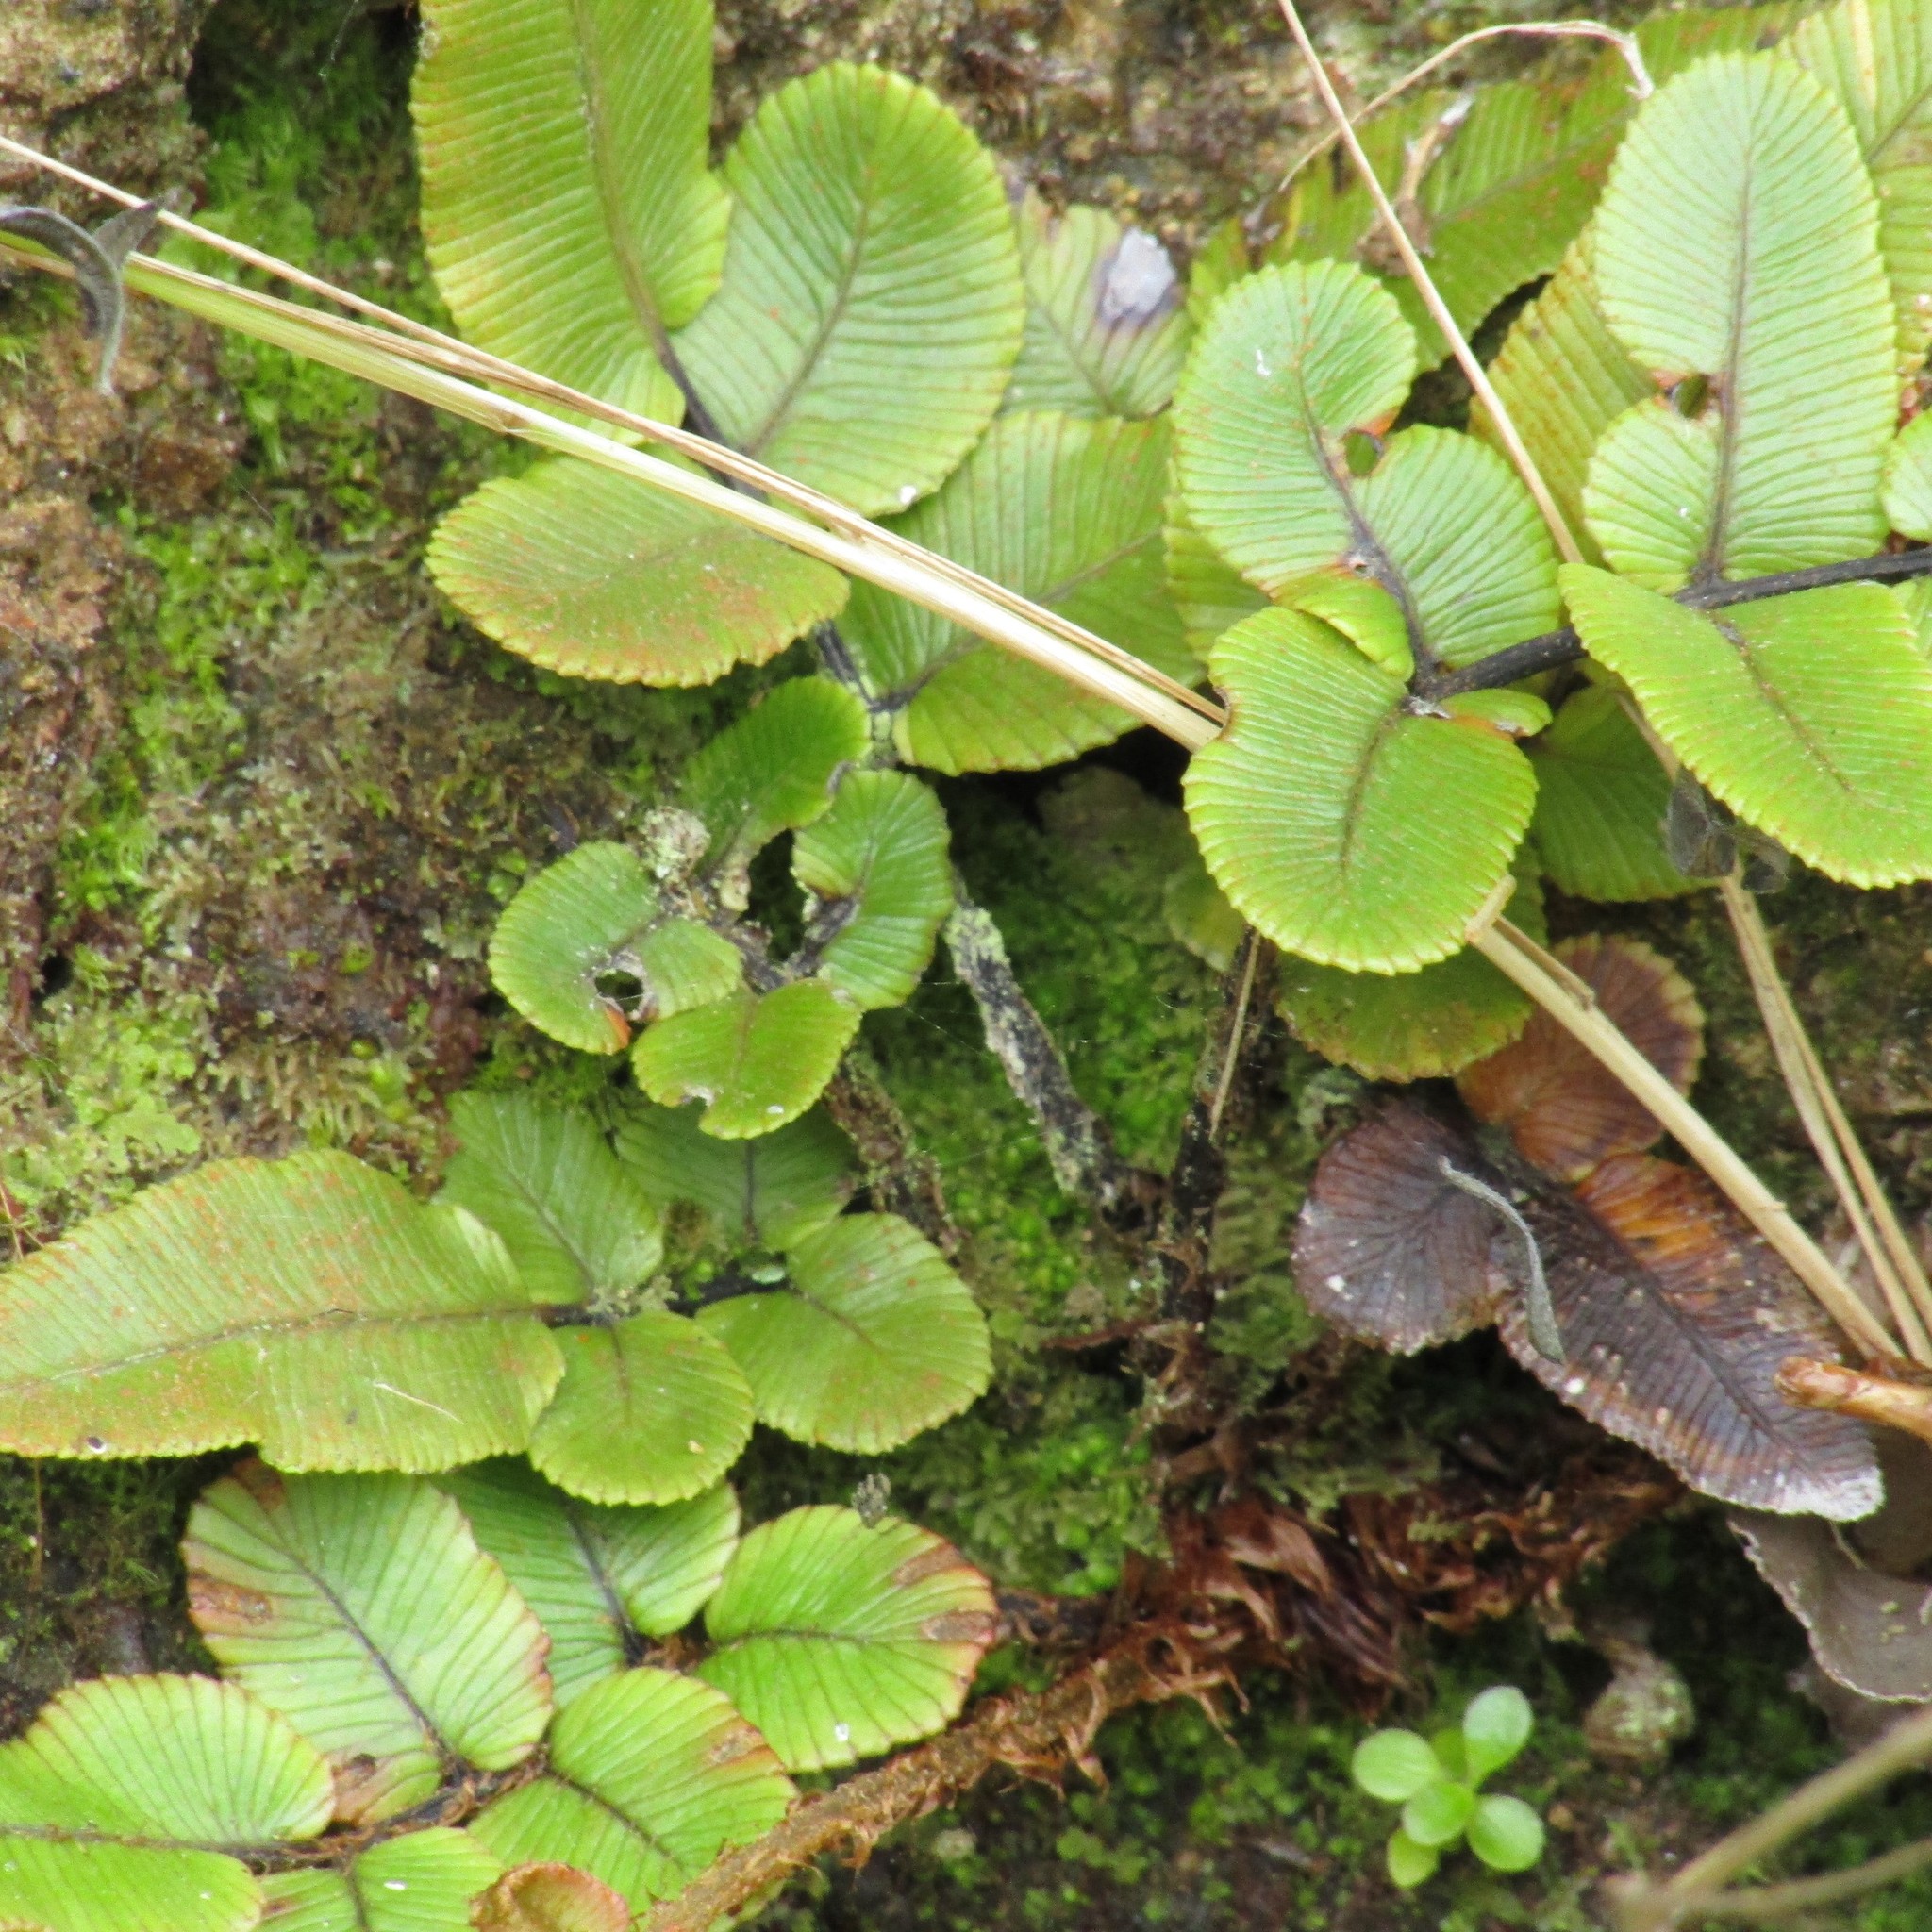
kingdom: Plantae
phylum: Tracheophyta
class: Polypodiopsida
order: Polypodiales
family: Blechnaceae
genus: Parablechnum
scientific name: Parablechnum procerum
